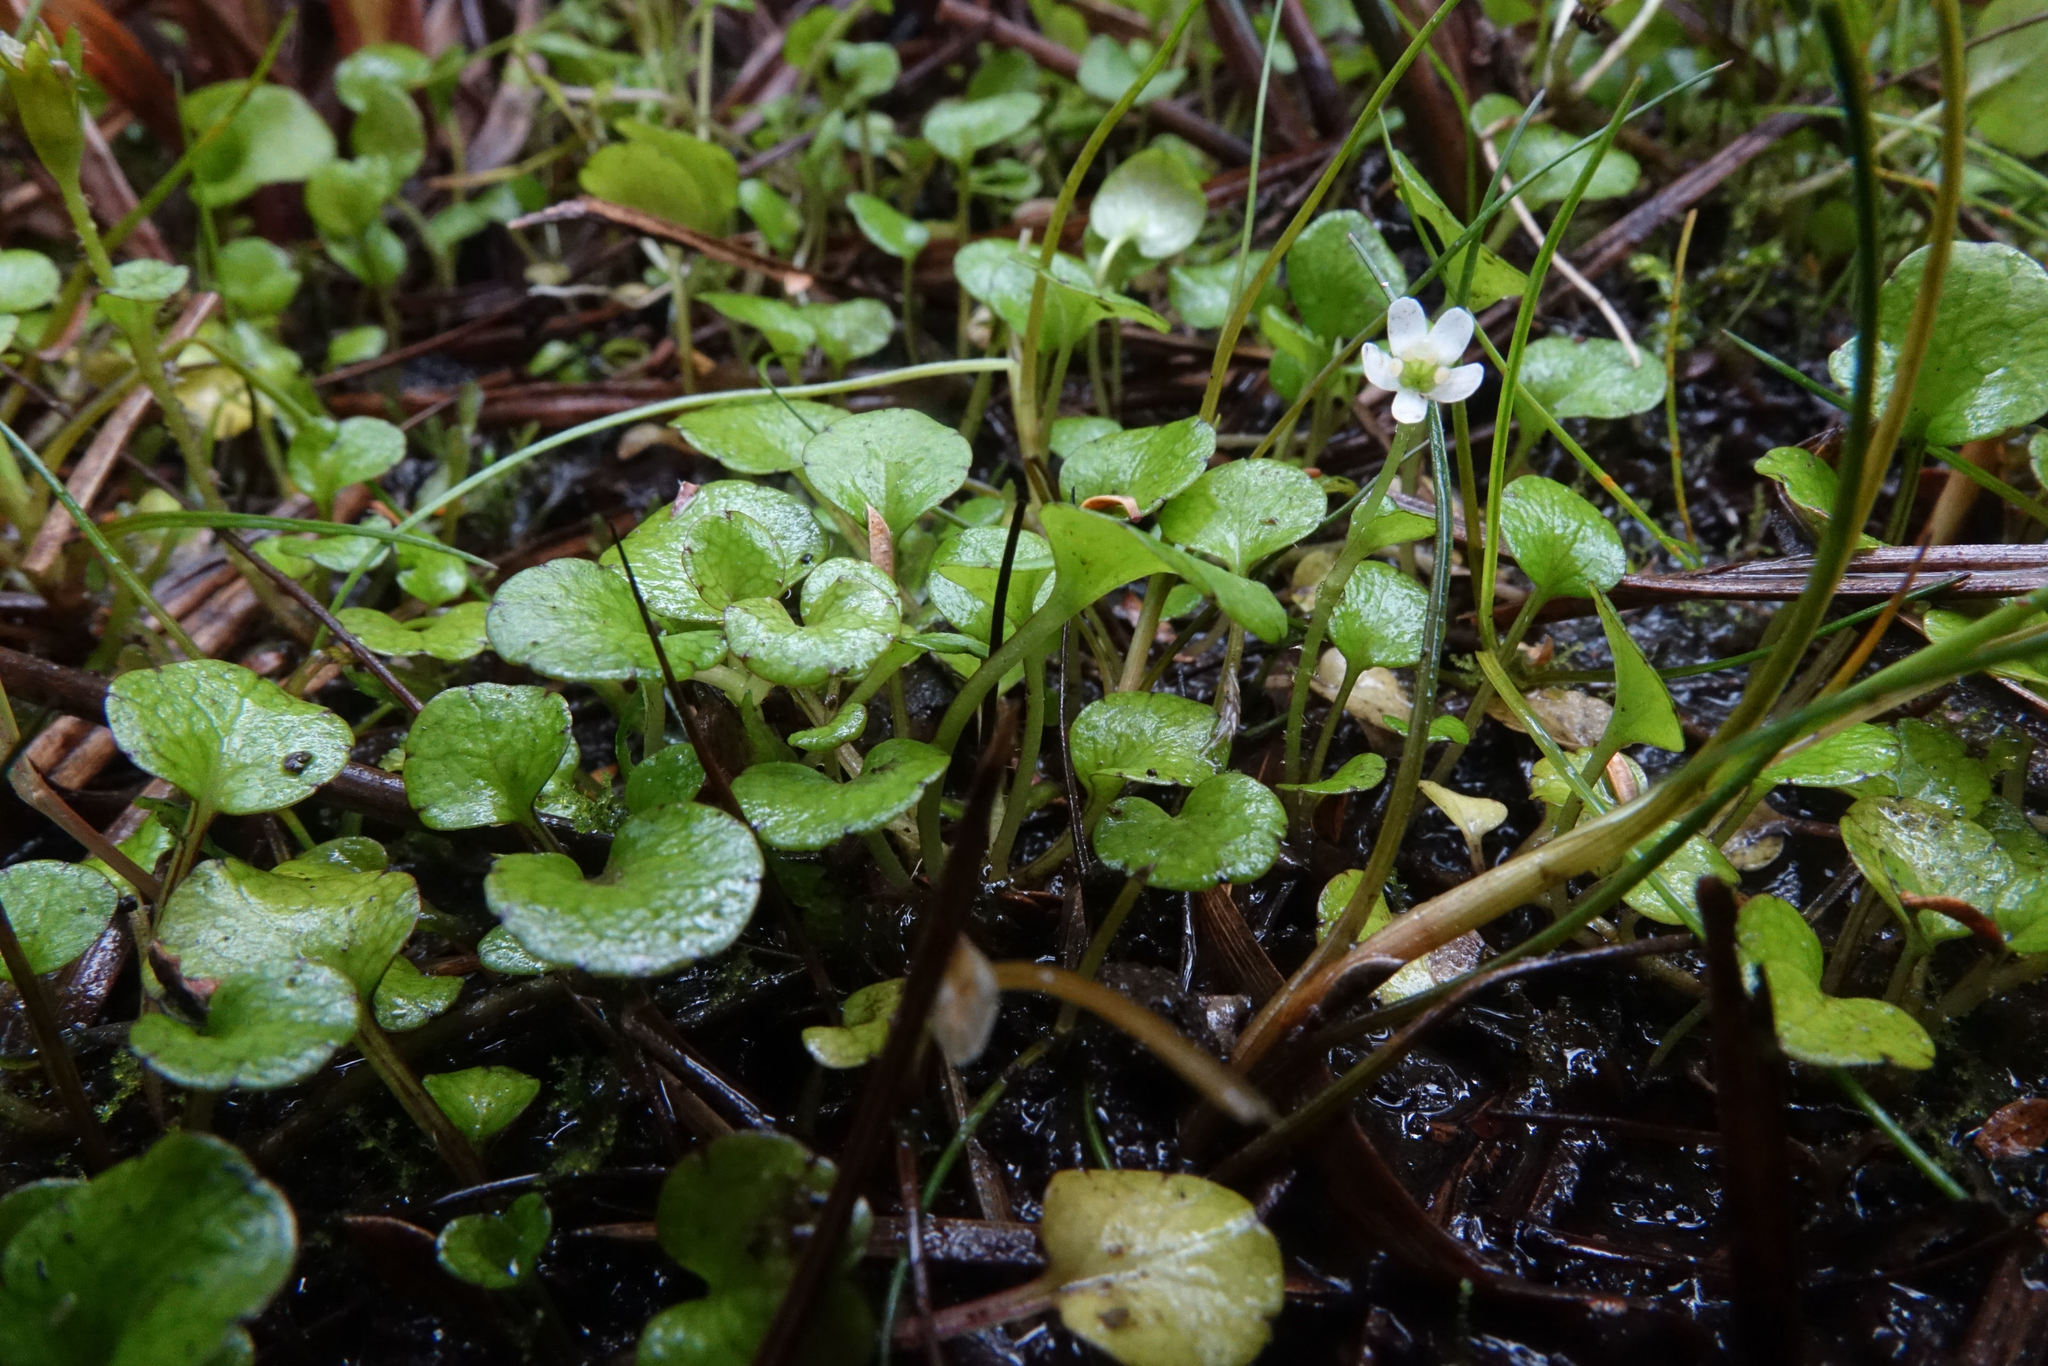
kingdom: Plantae
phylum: Tracheophyta
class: Magnoliopsida
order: Lamiales
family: Plantaginaceae
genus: Ourisia
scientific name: Ourisia modesta
